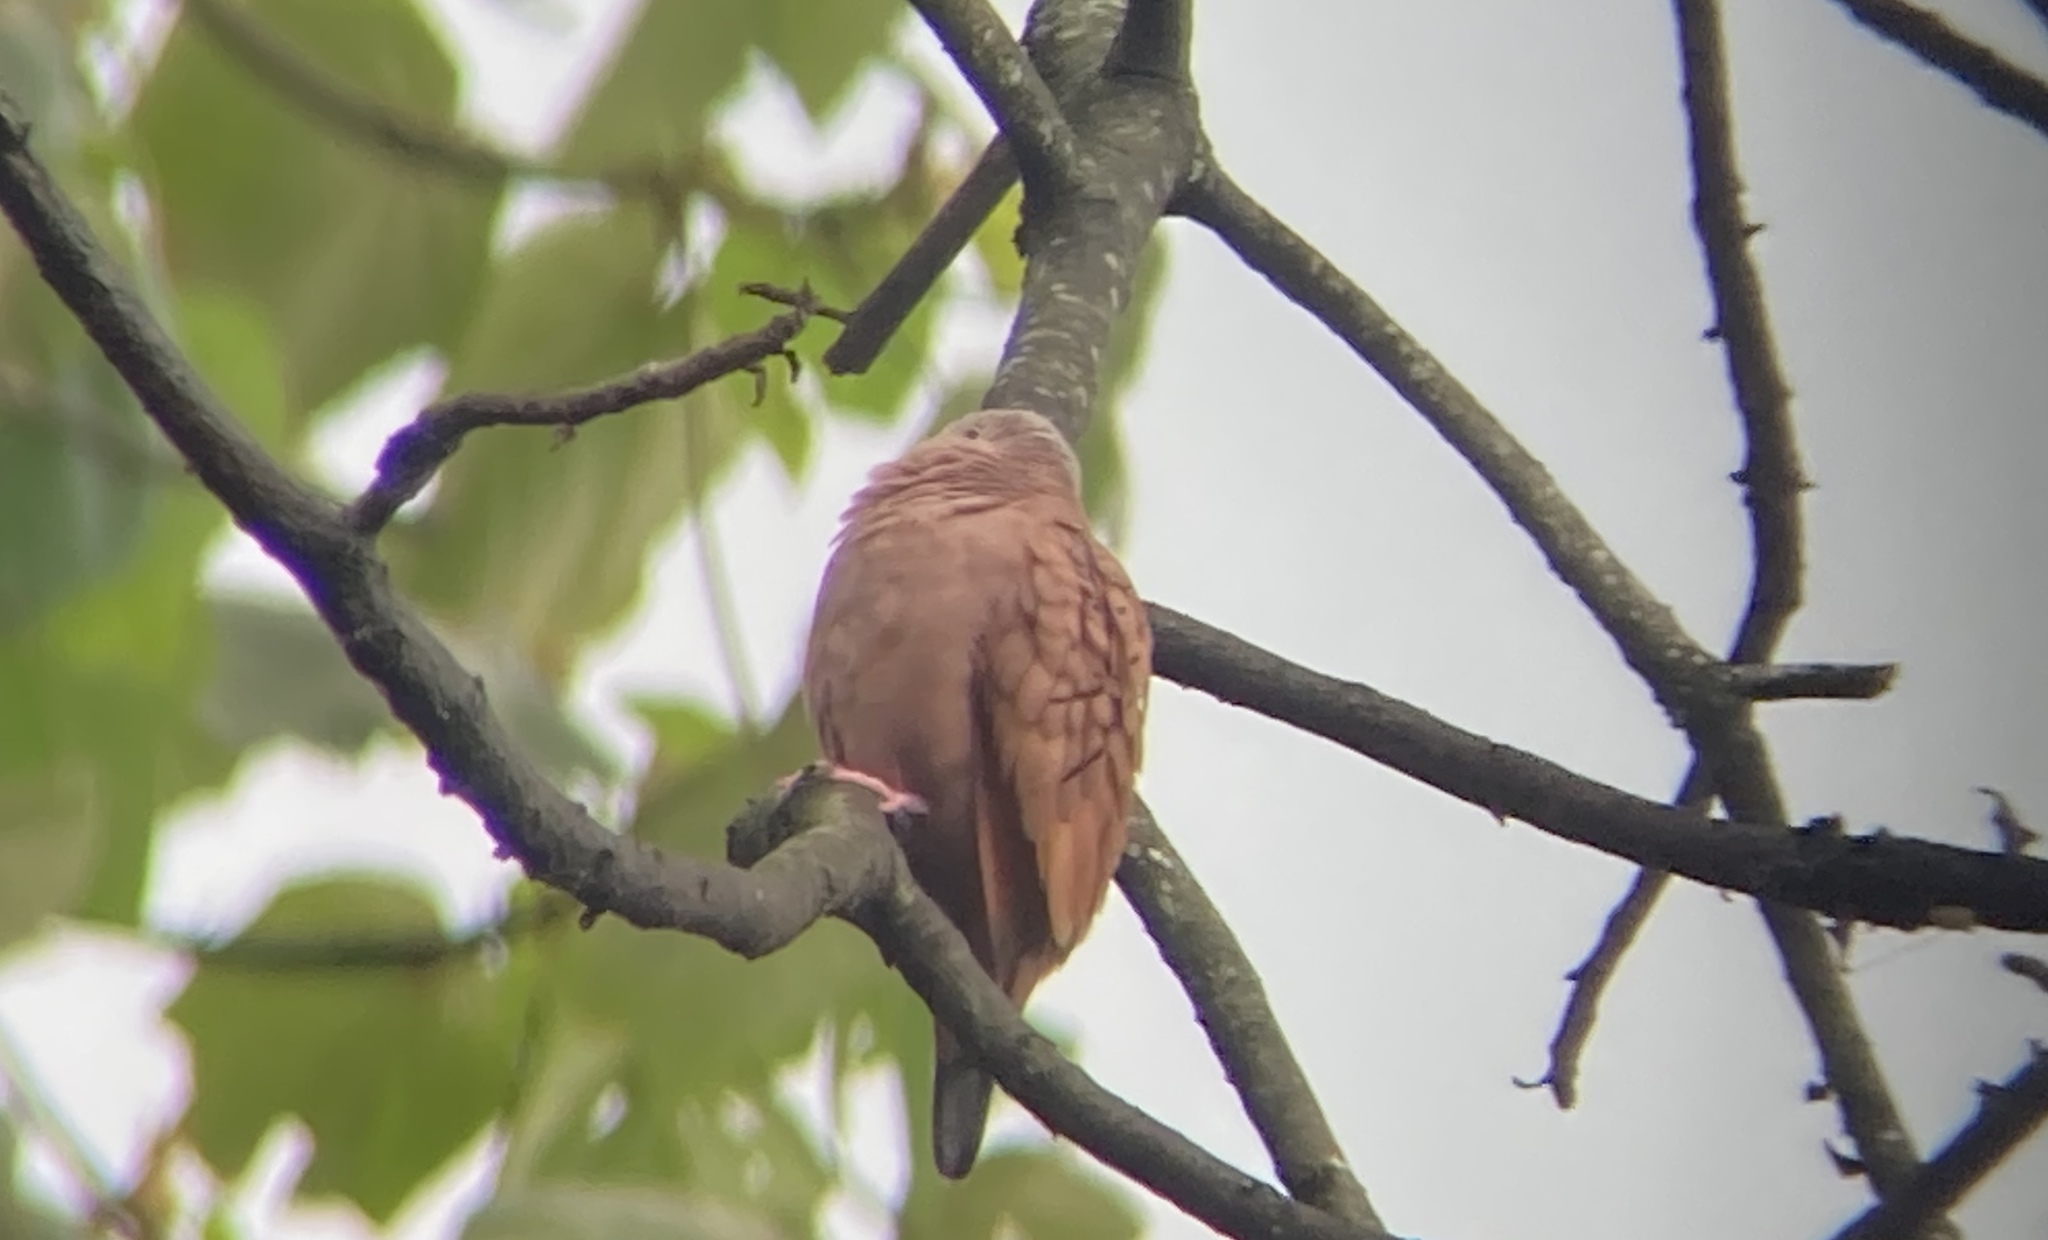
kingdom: Animalia
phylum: Chordata
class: Aves
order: Columbiformes
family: Columbidae
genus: Columbina
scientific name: Columbina talpacoti
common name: Ruddy ground dove
